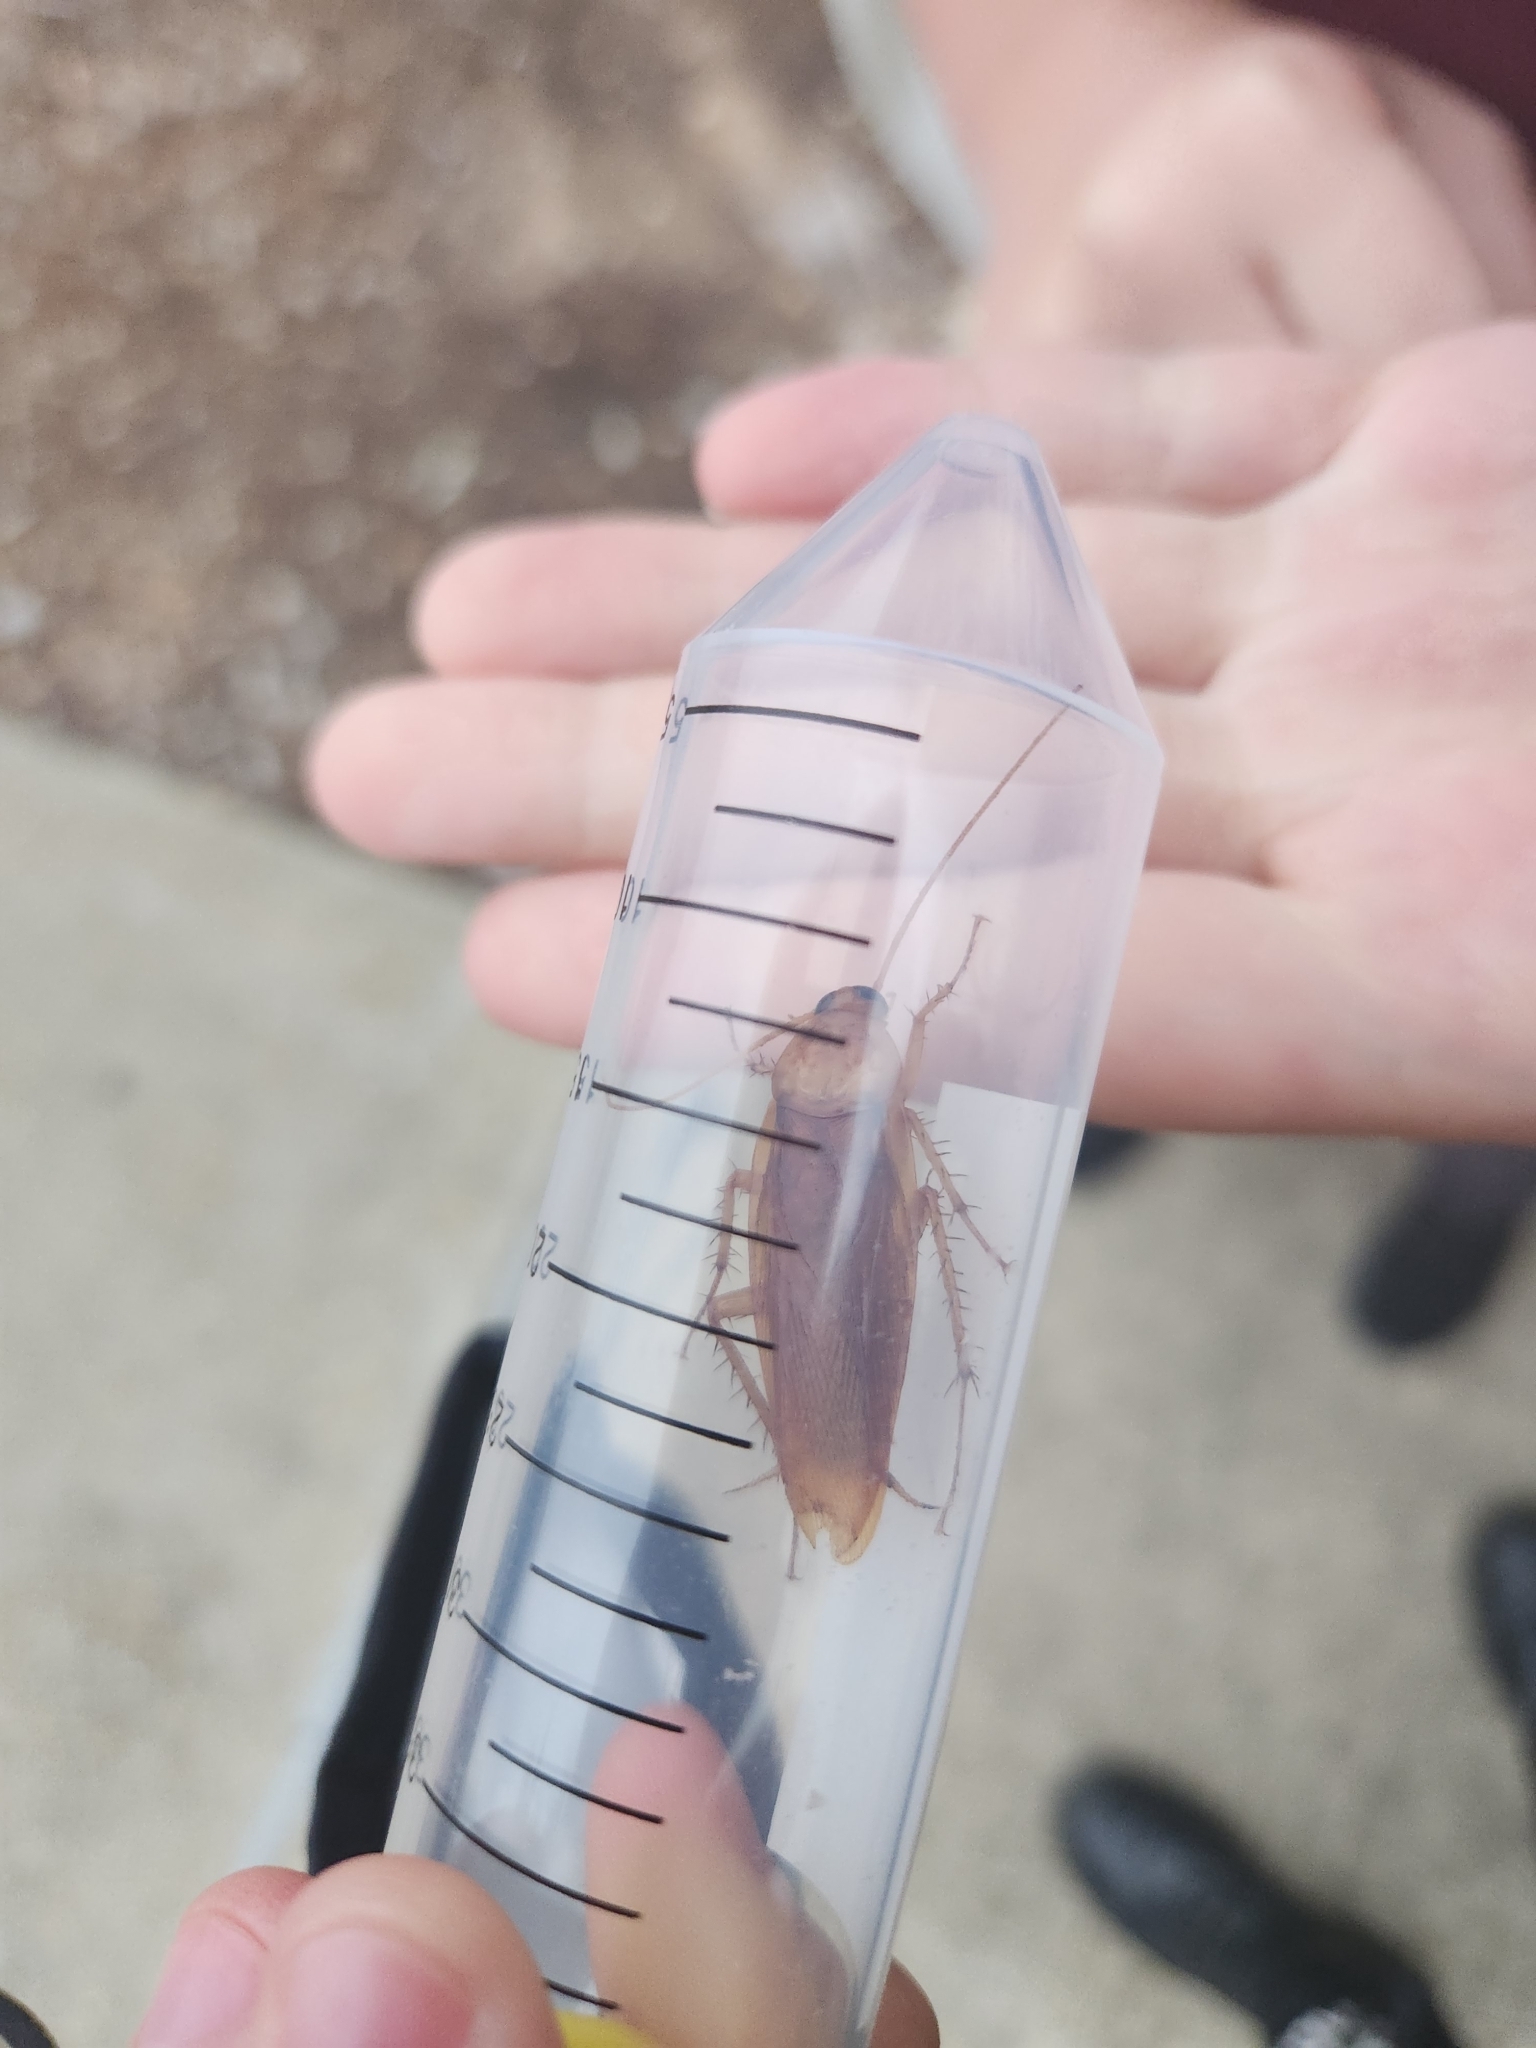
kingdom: Animalia
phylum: Arthropoda
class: Insecta
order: Blattodea
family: Blattidae
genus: Periplaneta
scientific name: Periplaneta americana
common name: American cockroach
